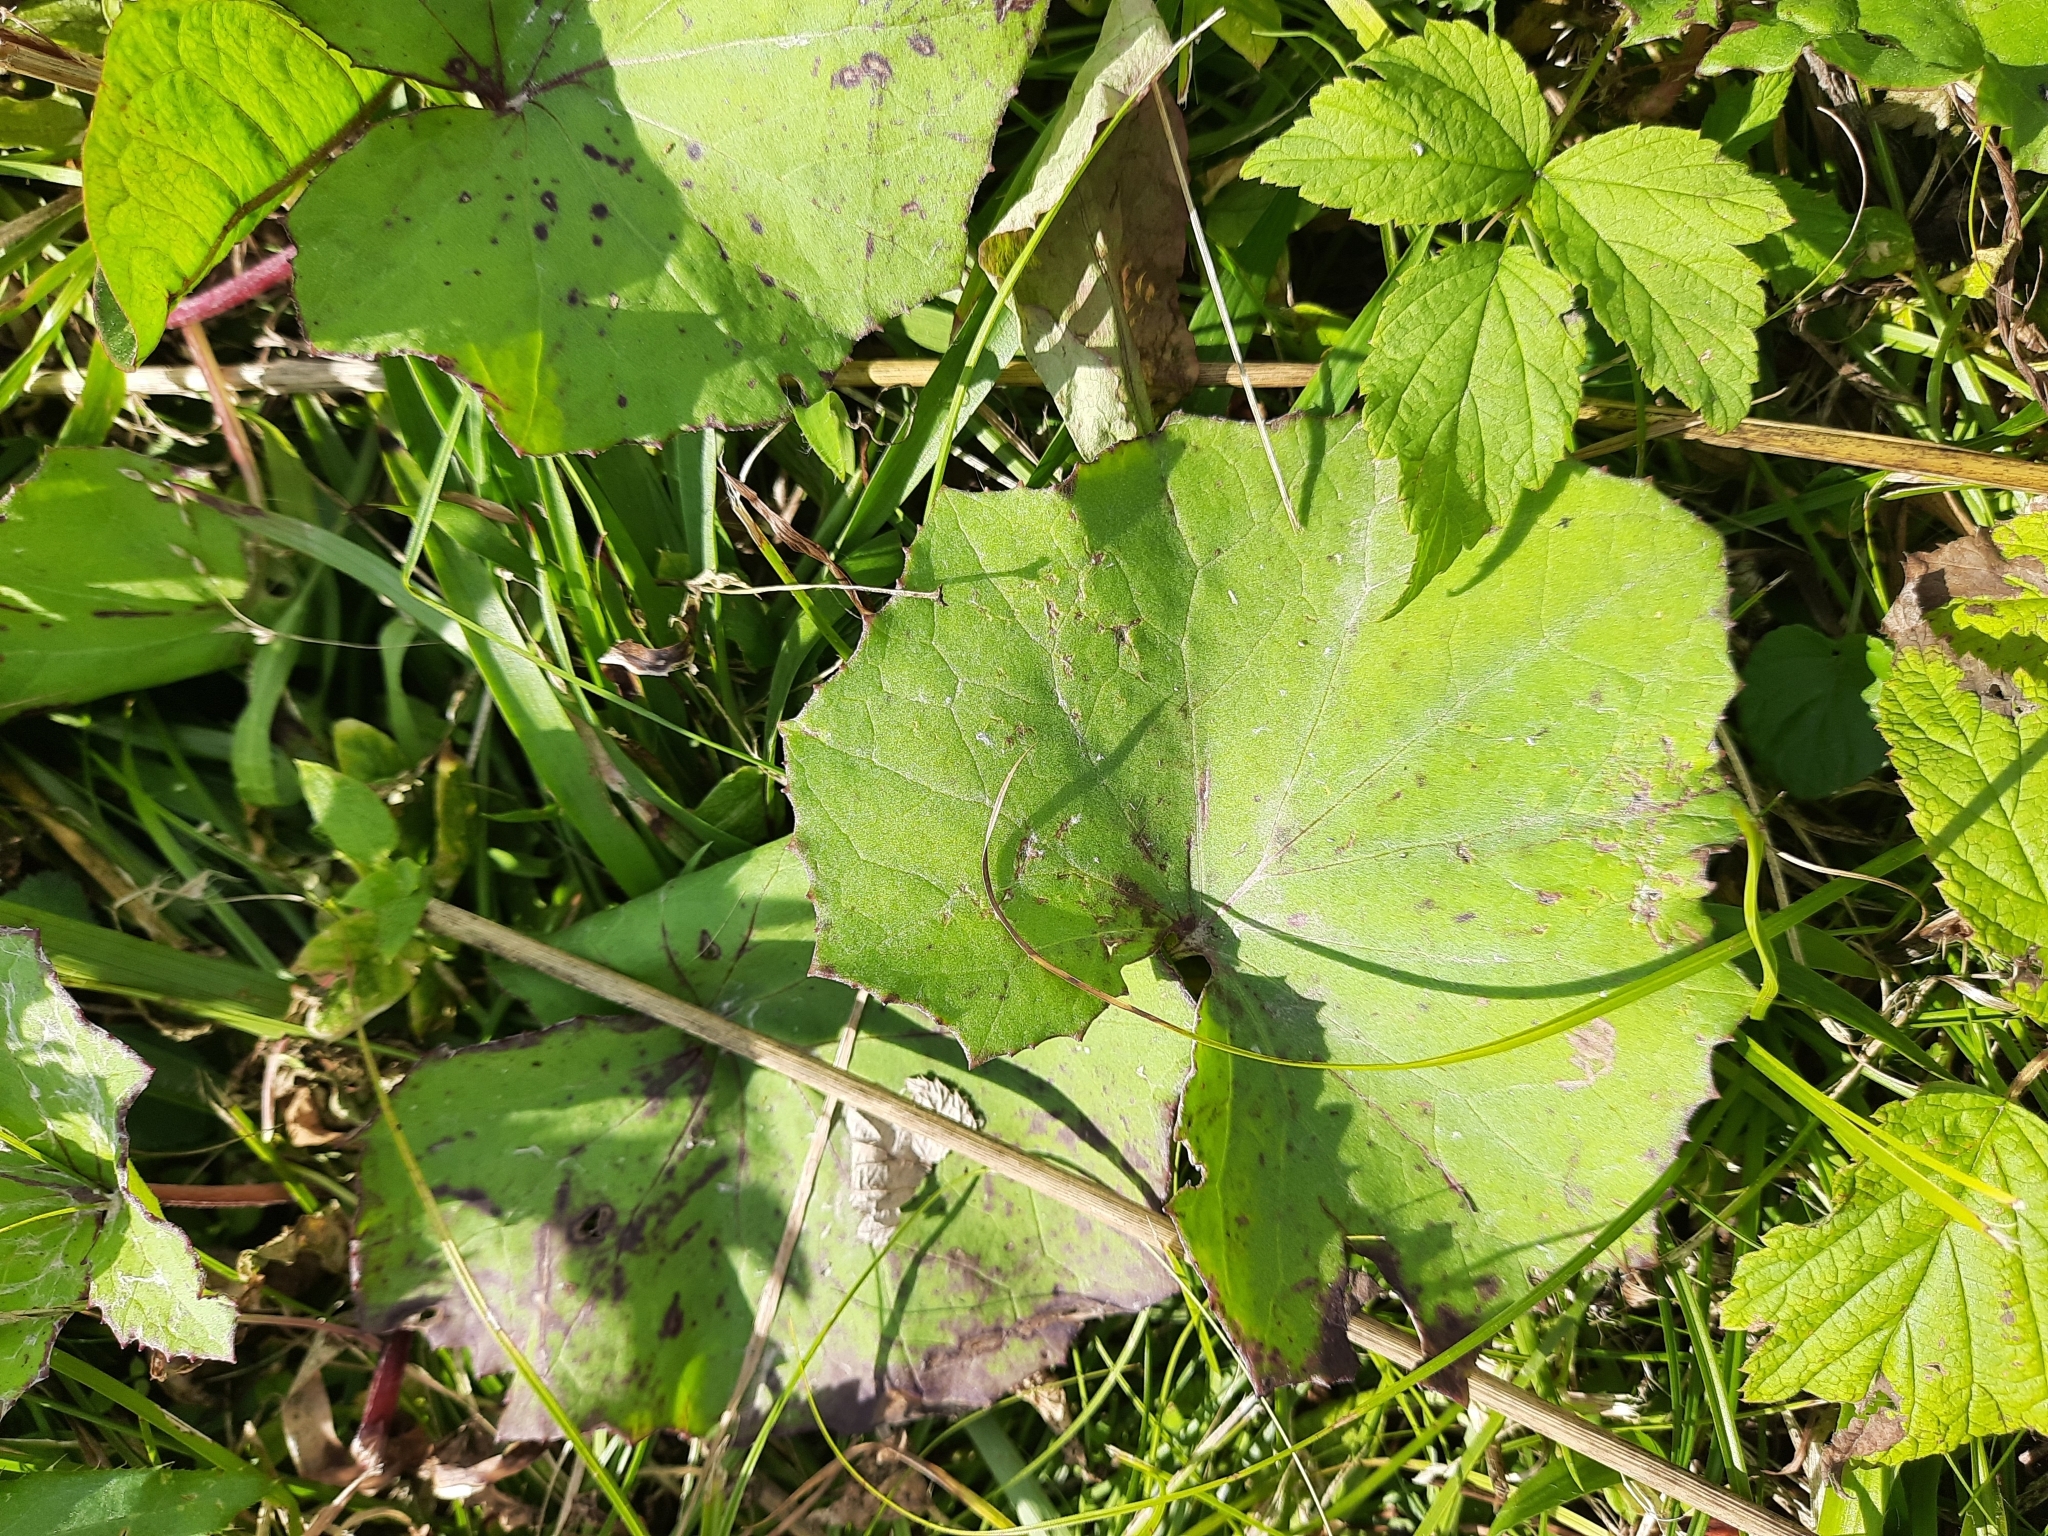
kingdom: Plantae
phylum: Tracheophyta
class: Magnoliopsida
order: Asterales
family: Asteraceae
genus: Tussilago
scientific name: Tussilago farfara
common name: Coltsfoot
